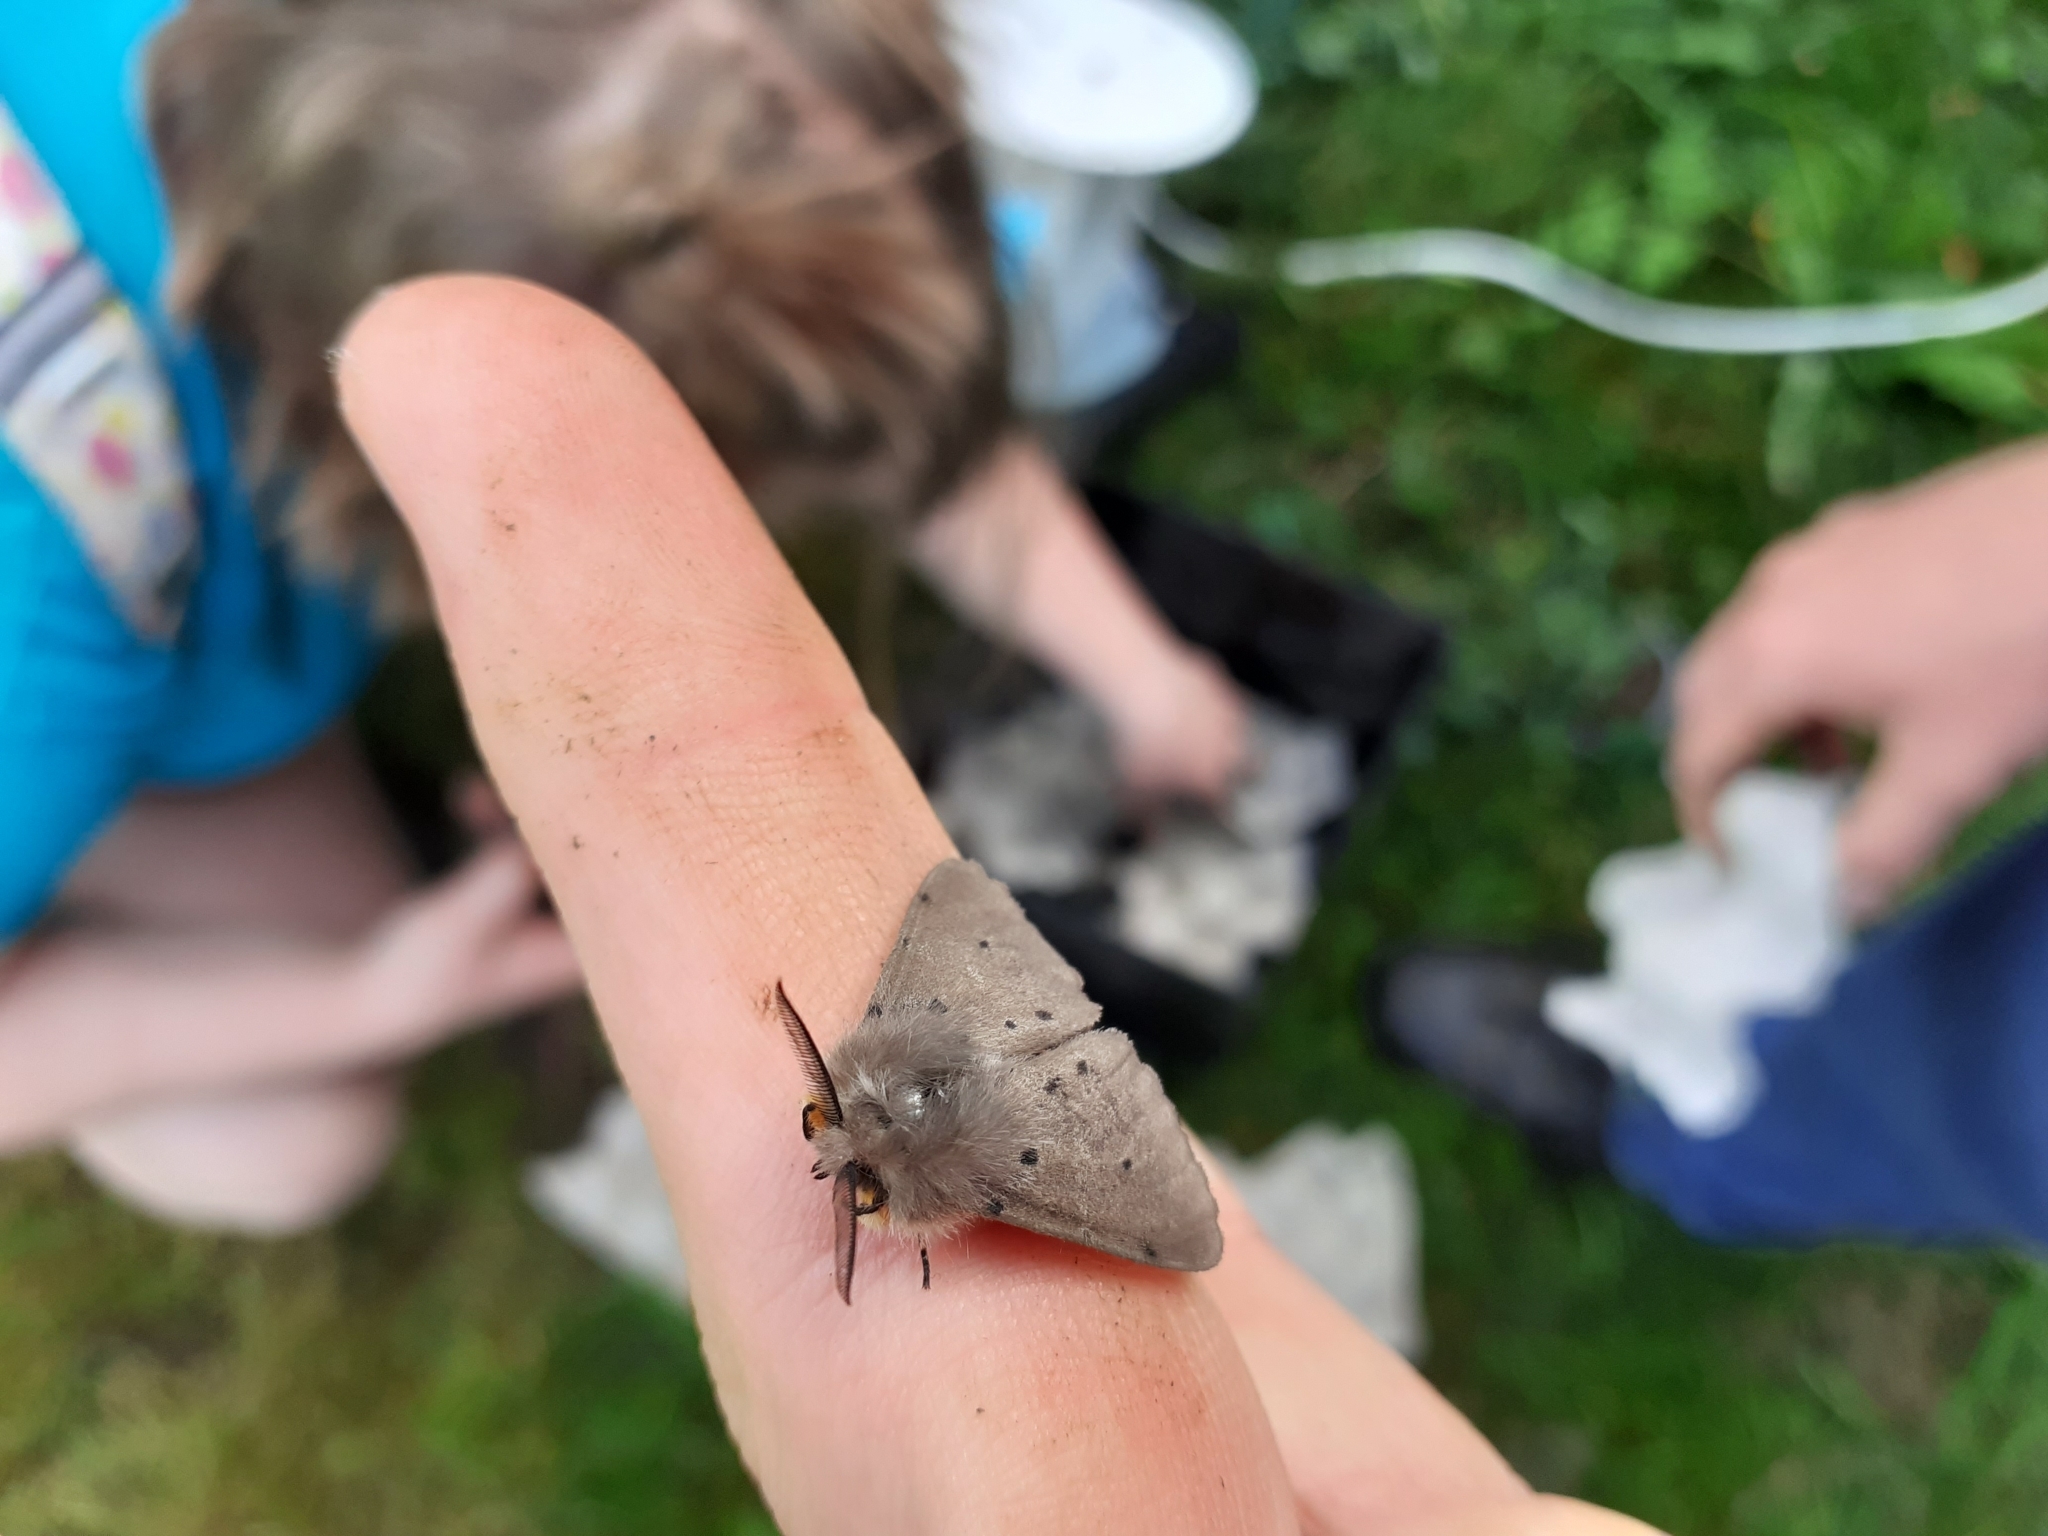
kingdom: Animalia
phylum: Arthropoda
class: Insecta
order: Lepidoptera
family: Erebidae
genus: Diaphora
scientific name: Diaphora mendica
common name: Muslin moth
